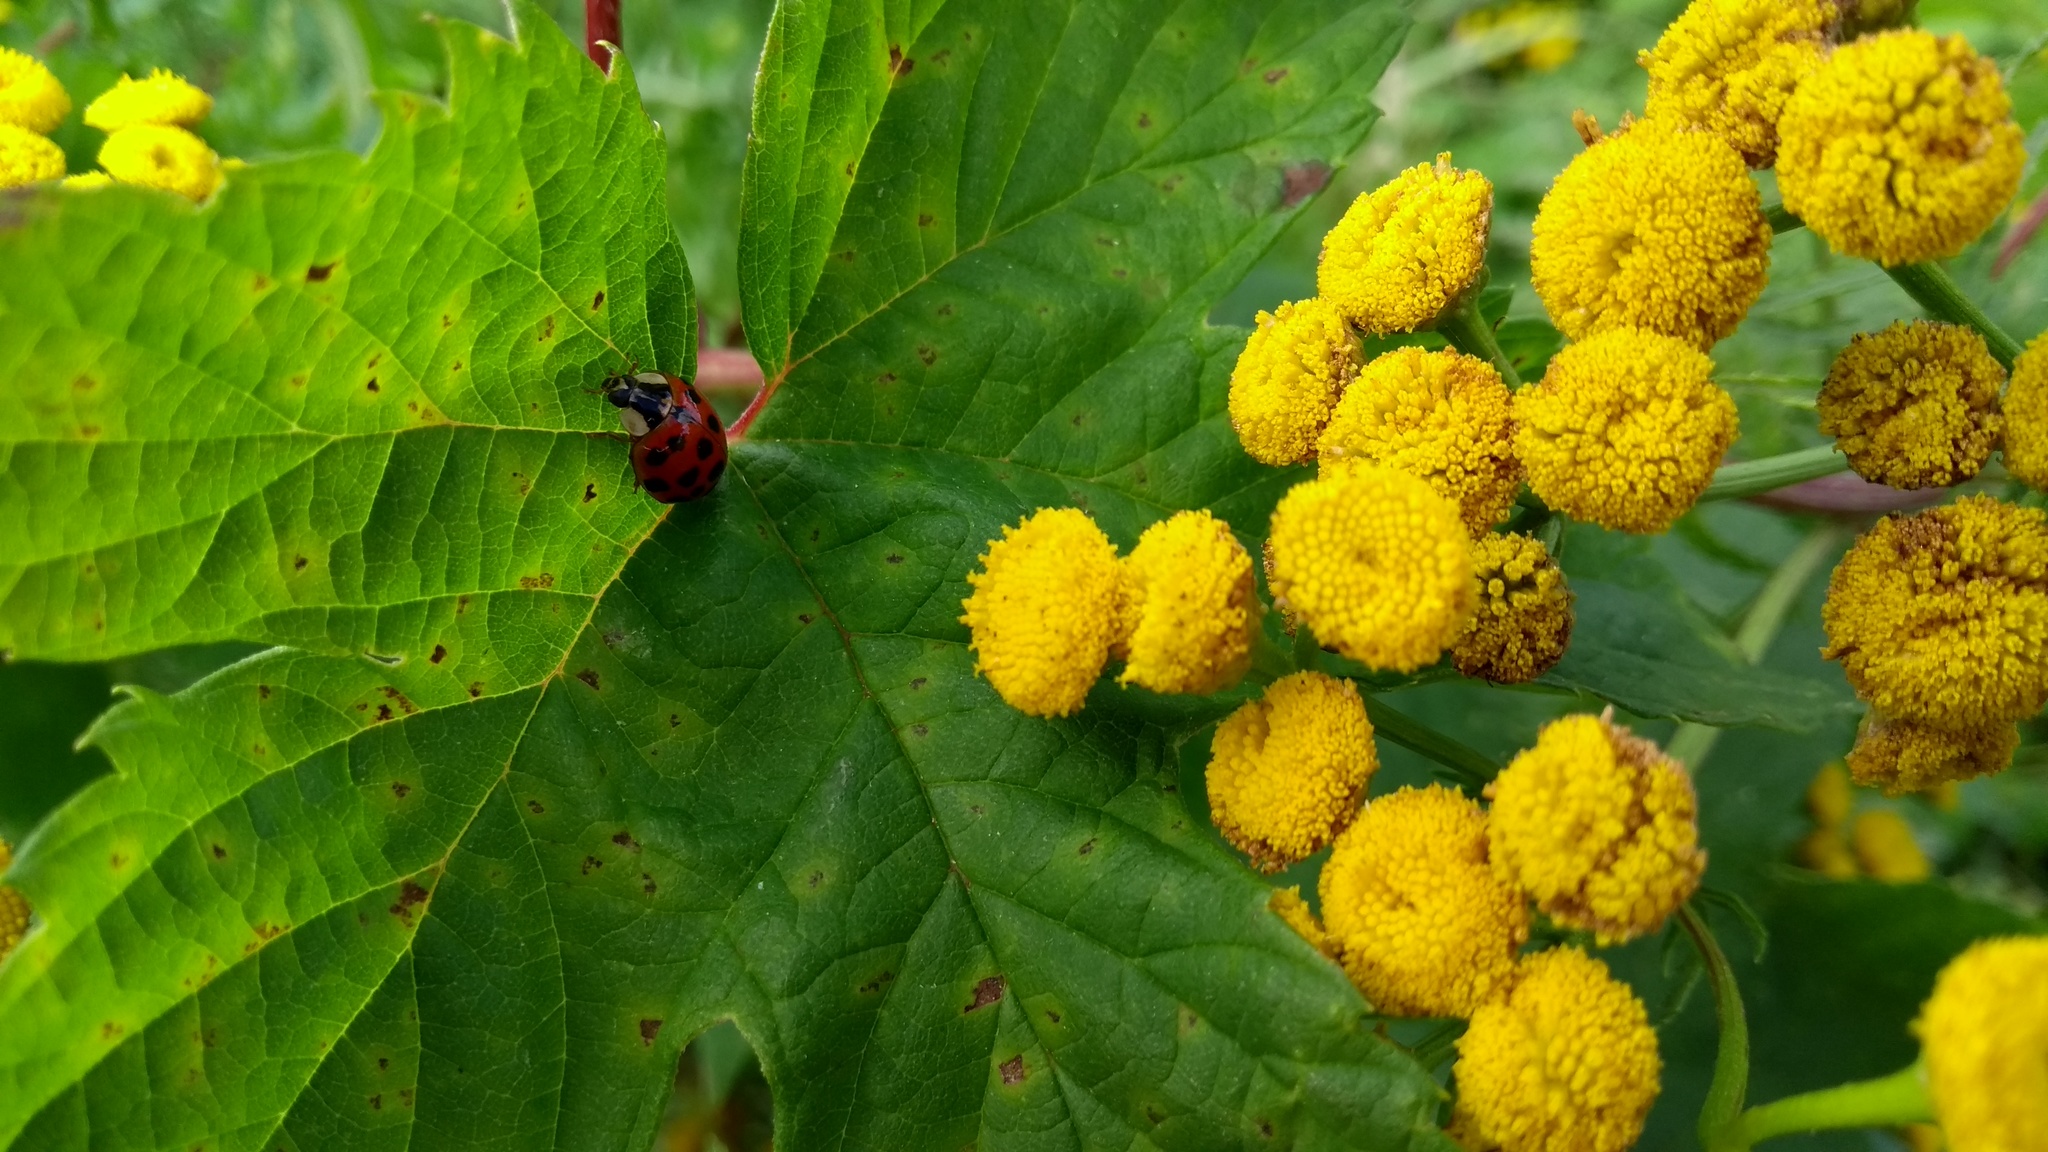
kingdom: Animalia
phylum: Arthropoda
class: Insecta
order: Coleoptera
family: Coccinellidae
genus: Harmonia
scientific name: Harmonia axyridis
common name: Harlequin ladybird
